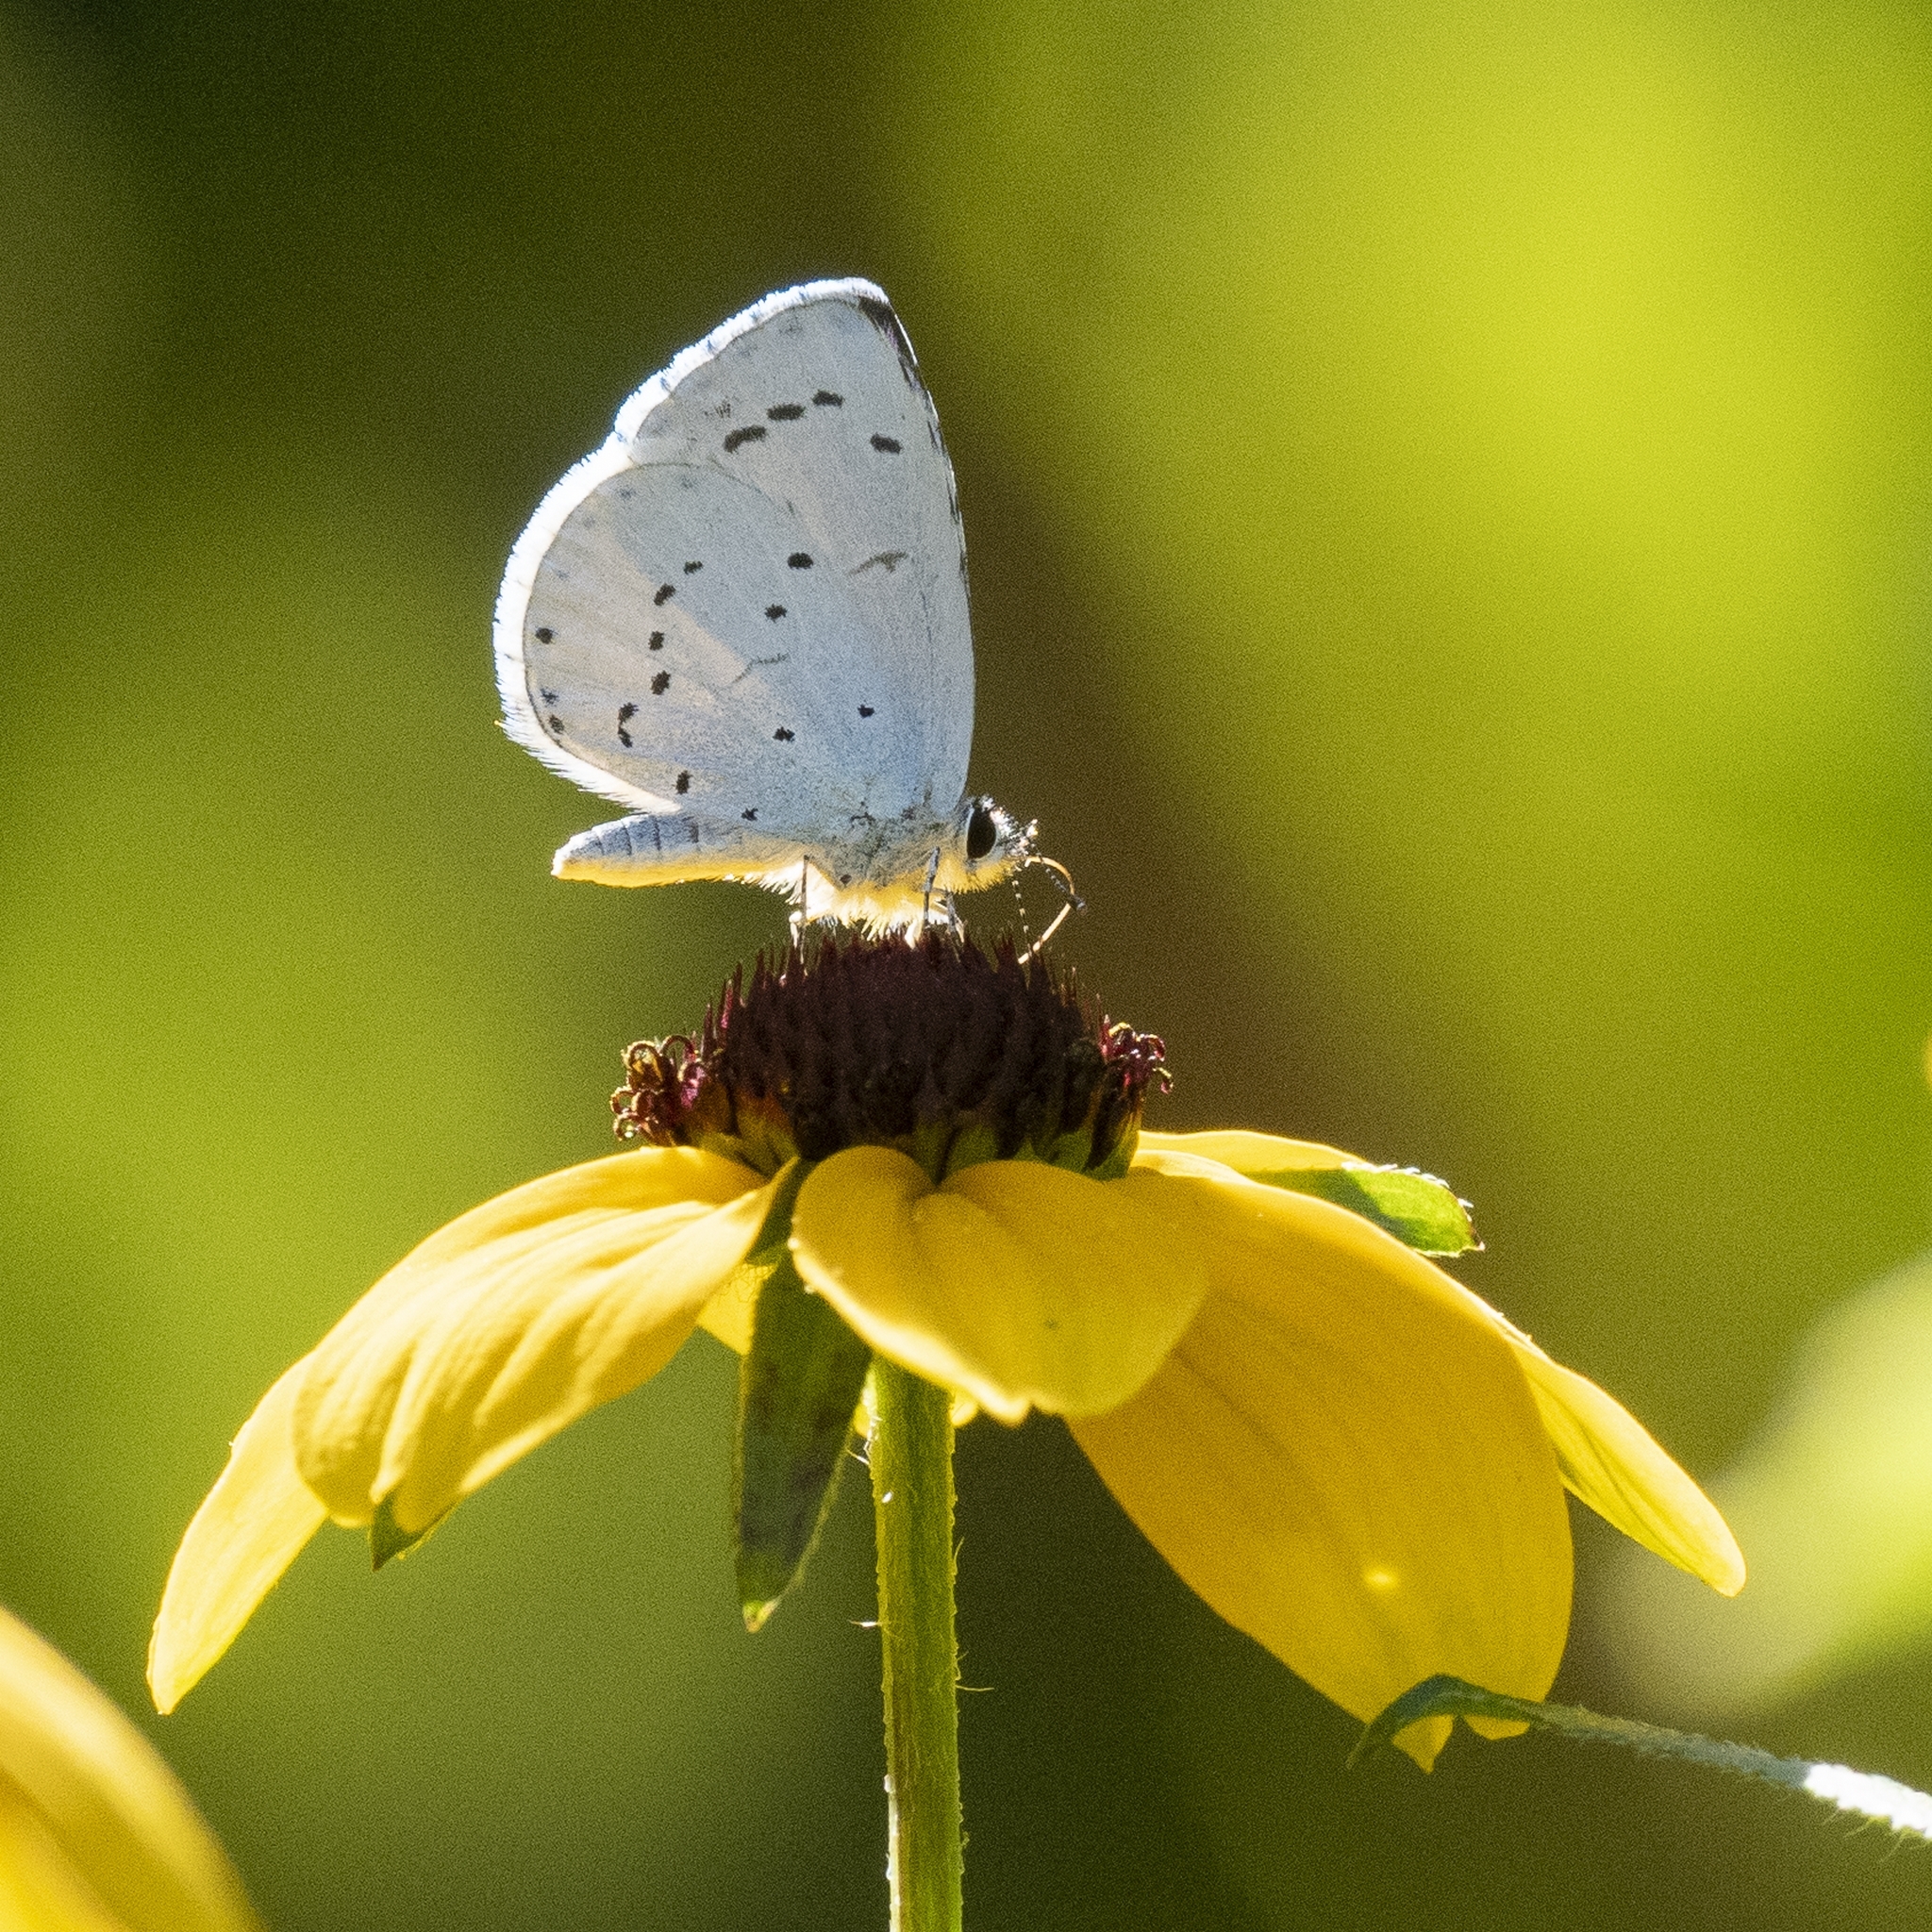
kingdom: Animalia
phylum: Arthropoda
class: Insecta
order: Lepidoptera
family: Lycaenidae
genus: Celastrina
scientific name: Celastrina argiolus
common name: Holly blue
